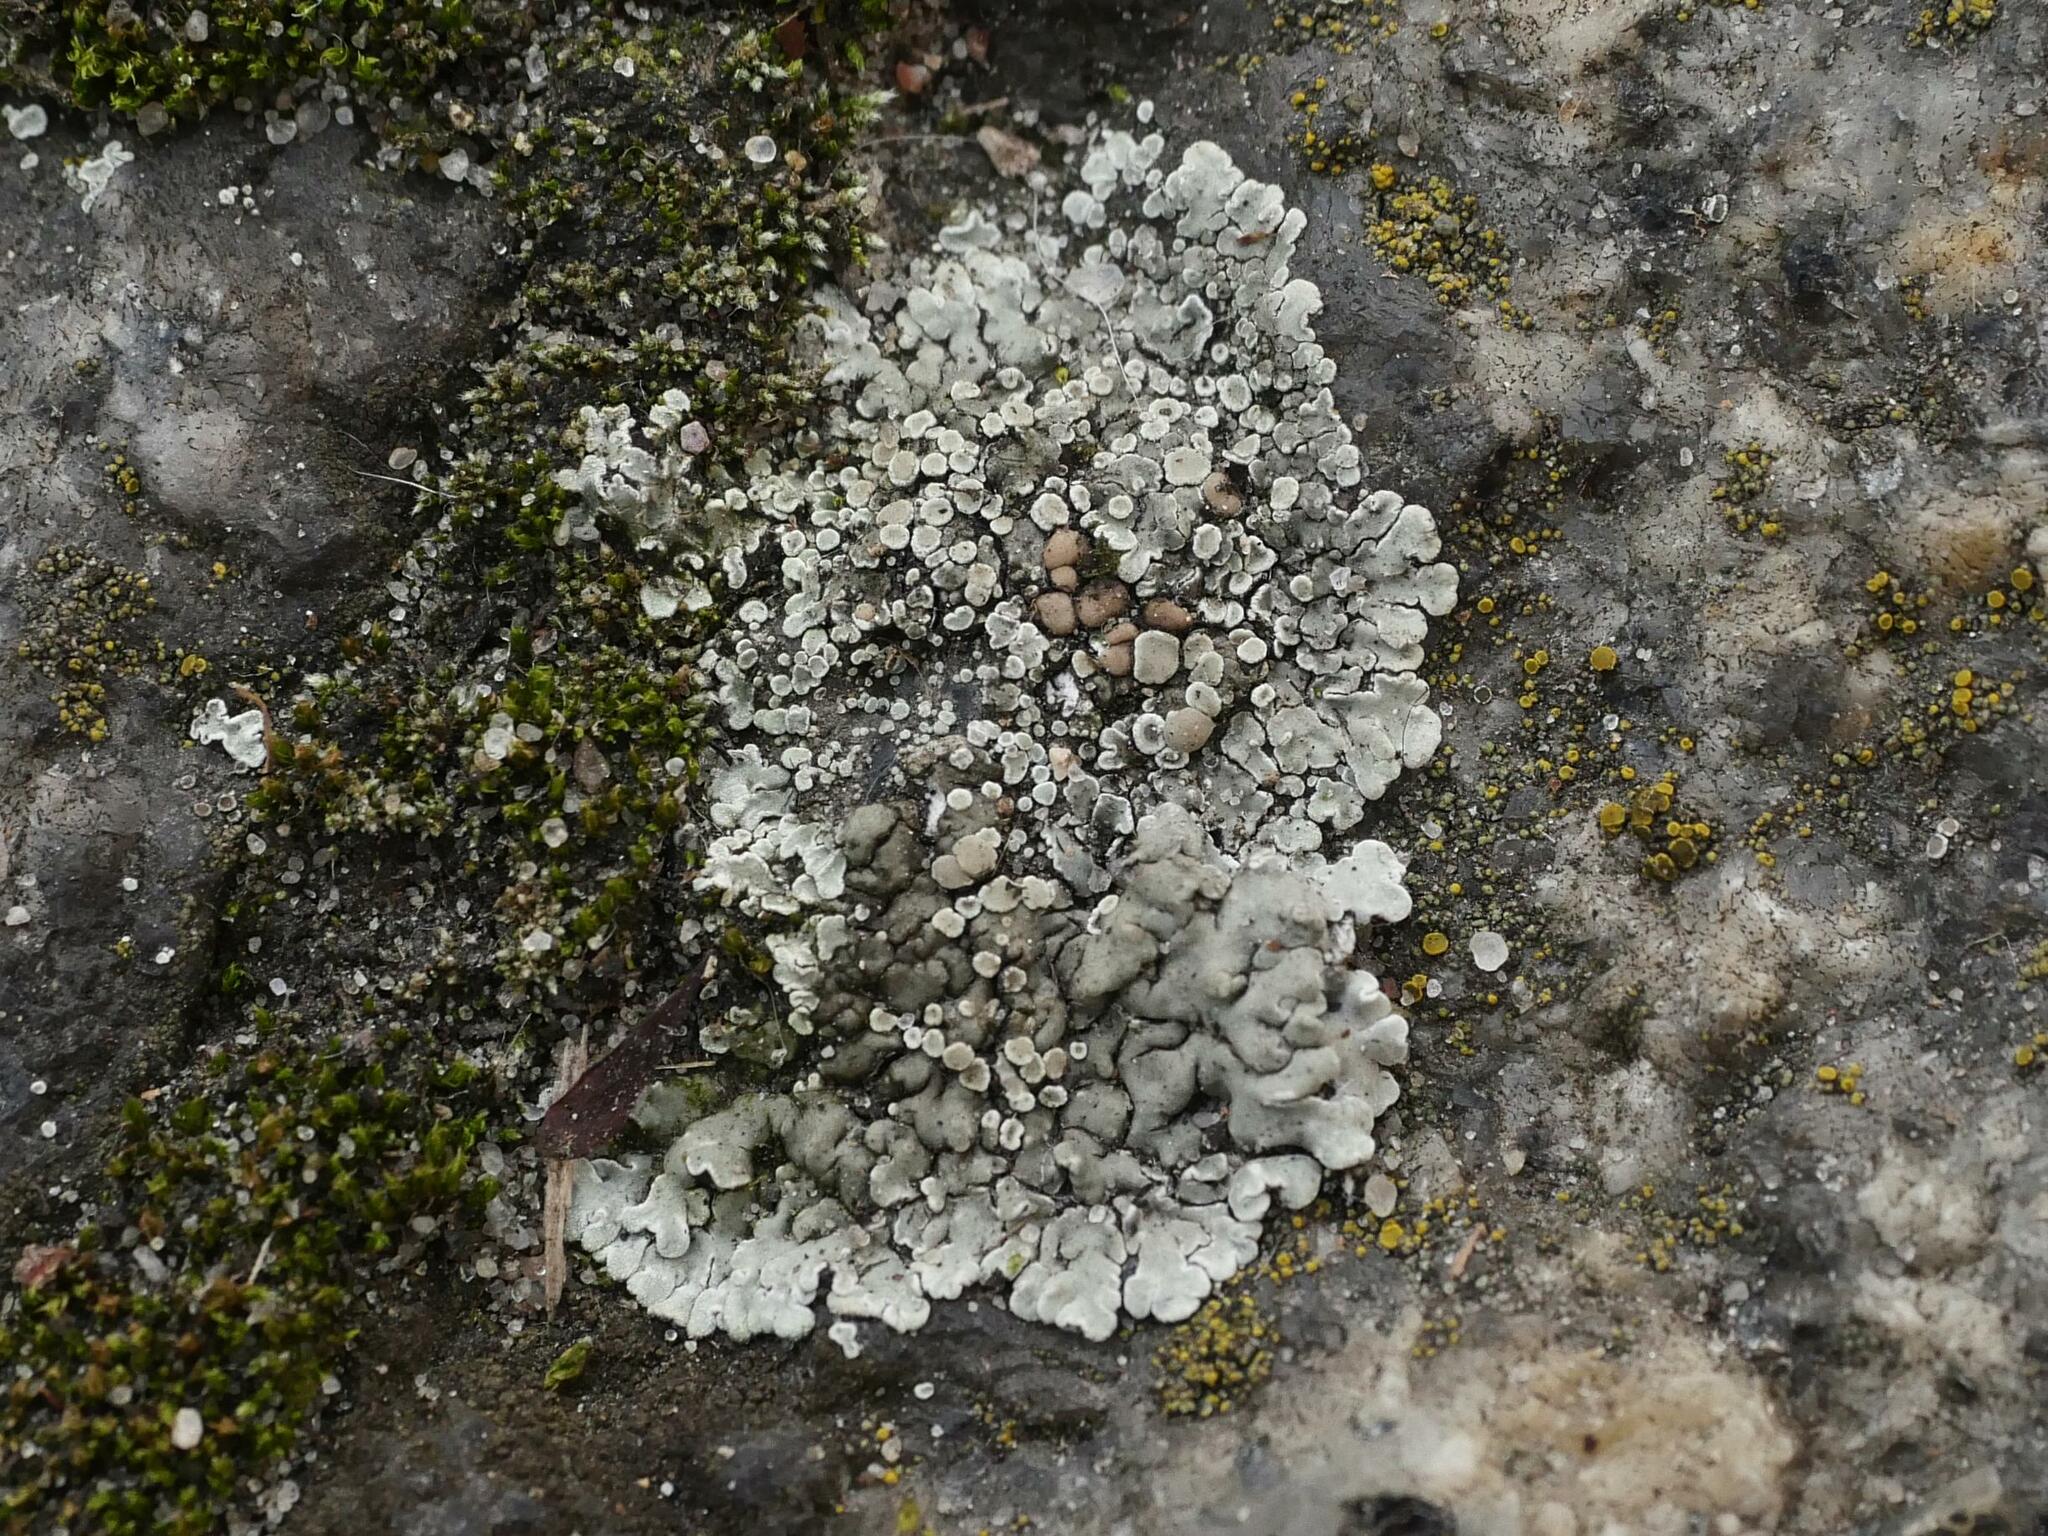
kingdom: Fungi
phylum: Ascomycota
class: Lecanoromycetes
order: Lecanorales
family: Lecanoraceae
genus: Protoparmeliopsis
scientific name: Protoparmeliopsis muralis
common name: Stonewall rim lichen
